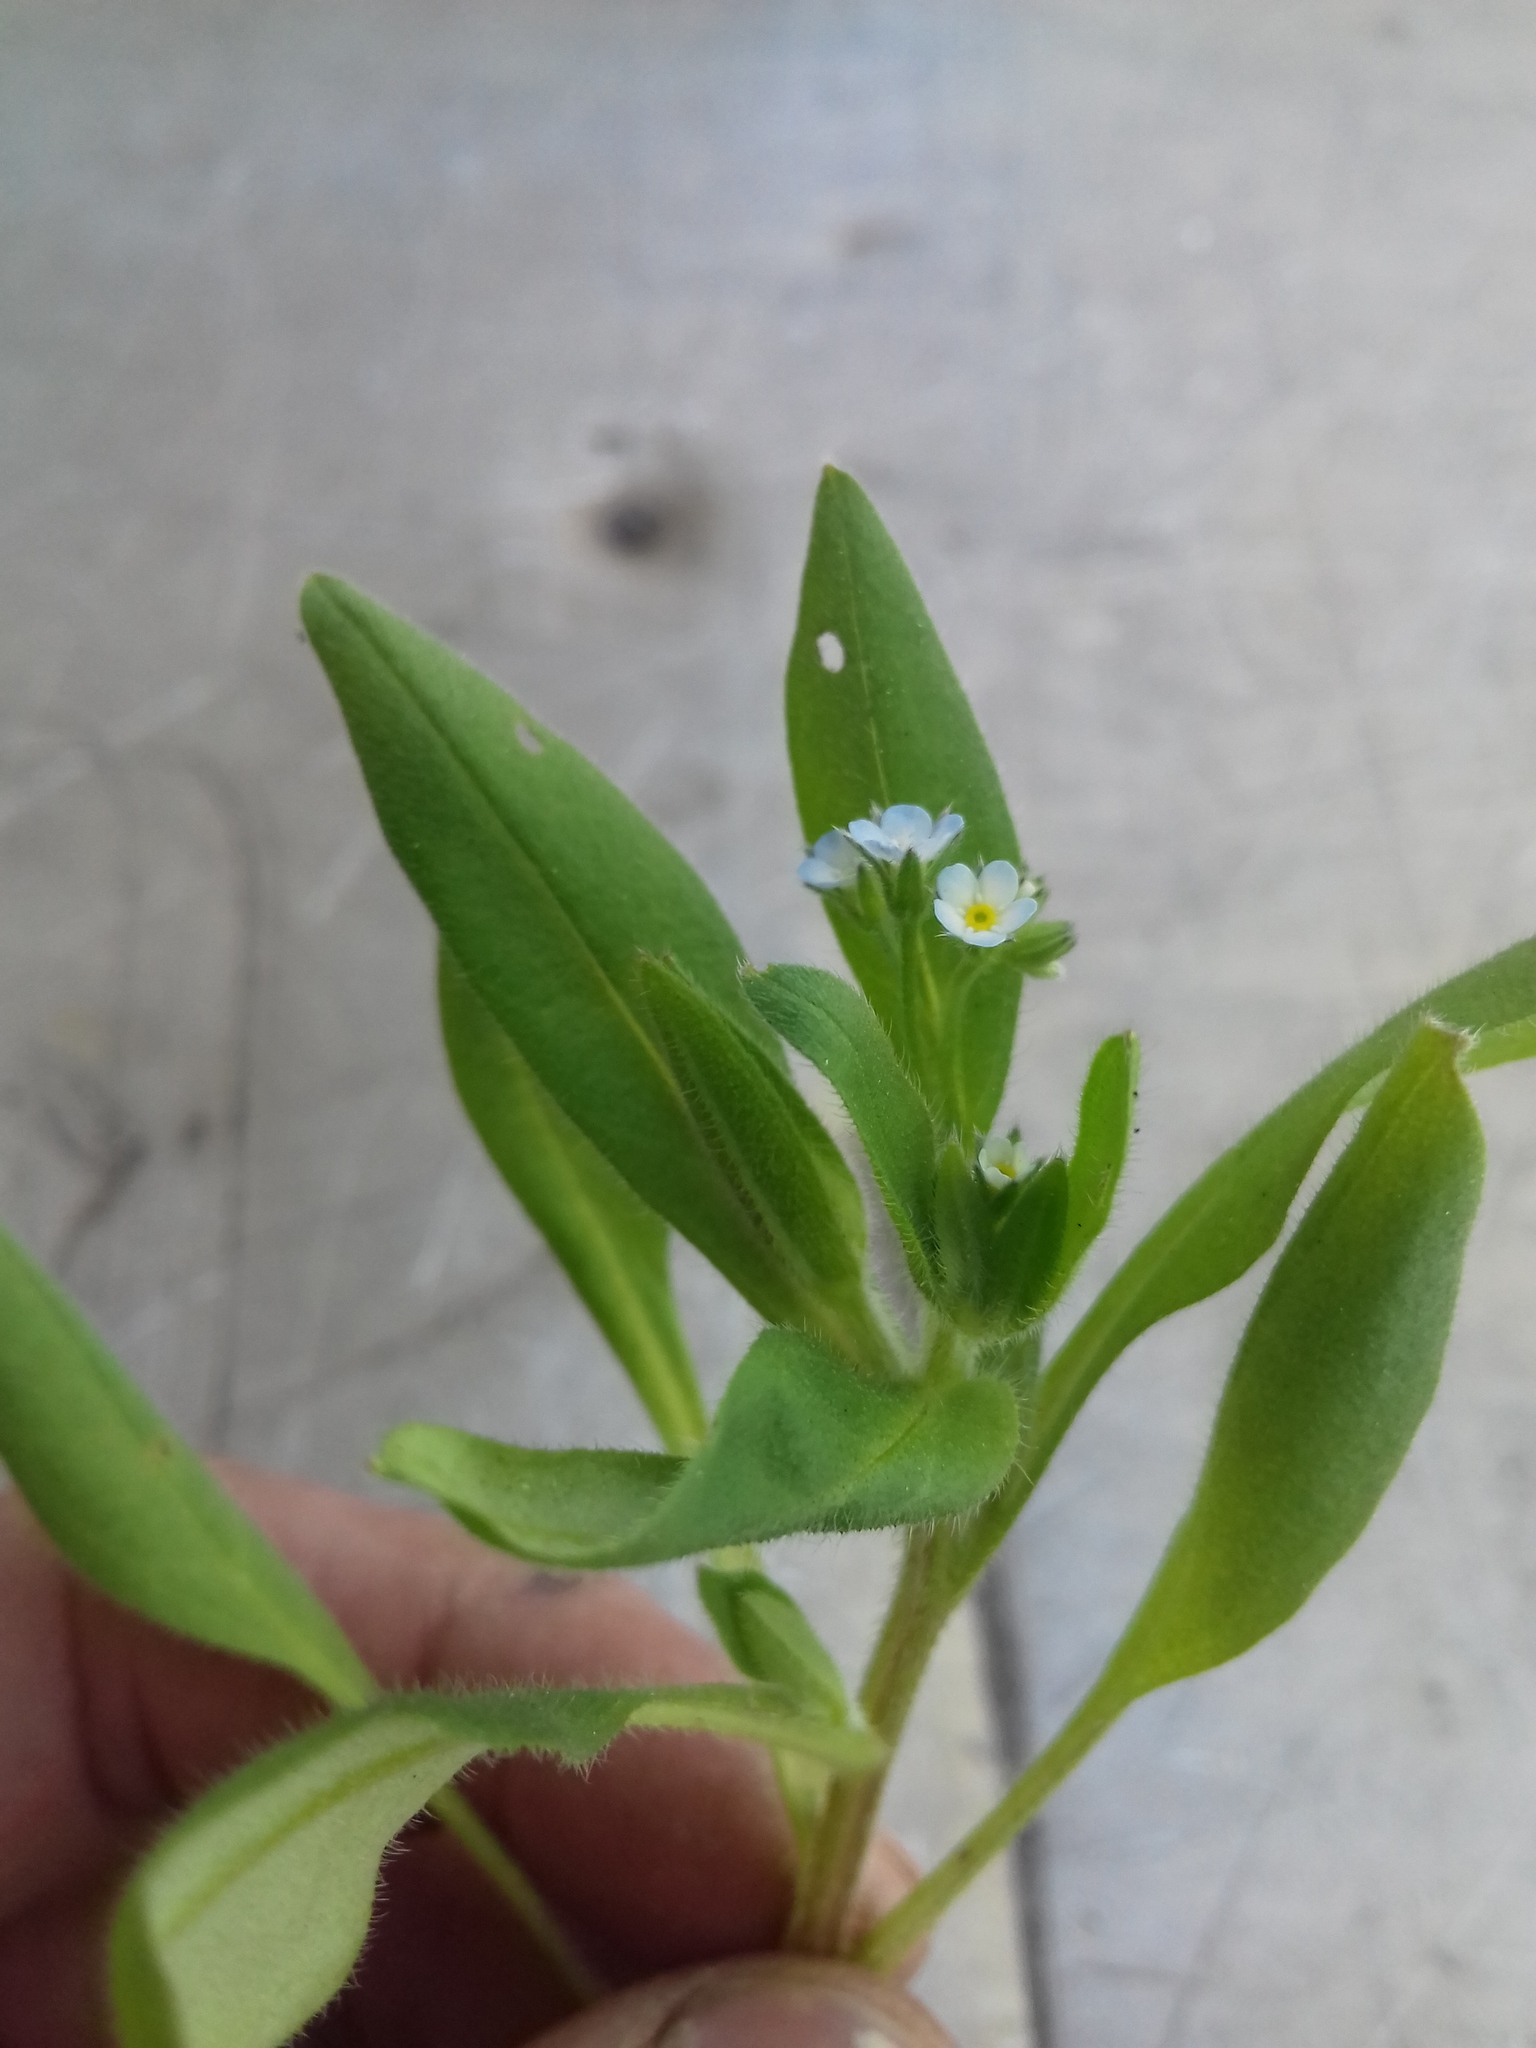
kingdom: Plantae
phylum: Tracheophyta
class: Magnoliopsida
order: Boraginales
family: Boraginaceae
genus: Myosotis
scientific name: Myosotis sparsiflora
